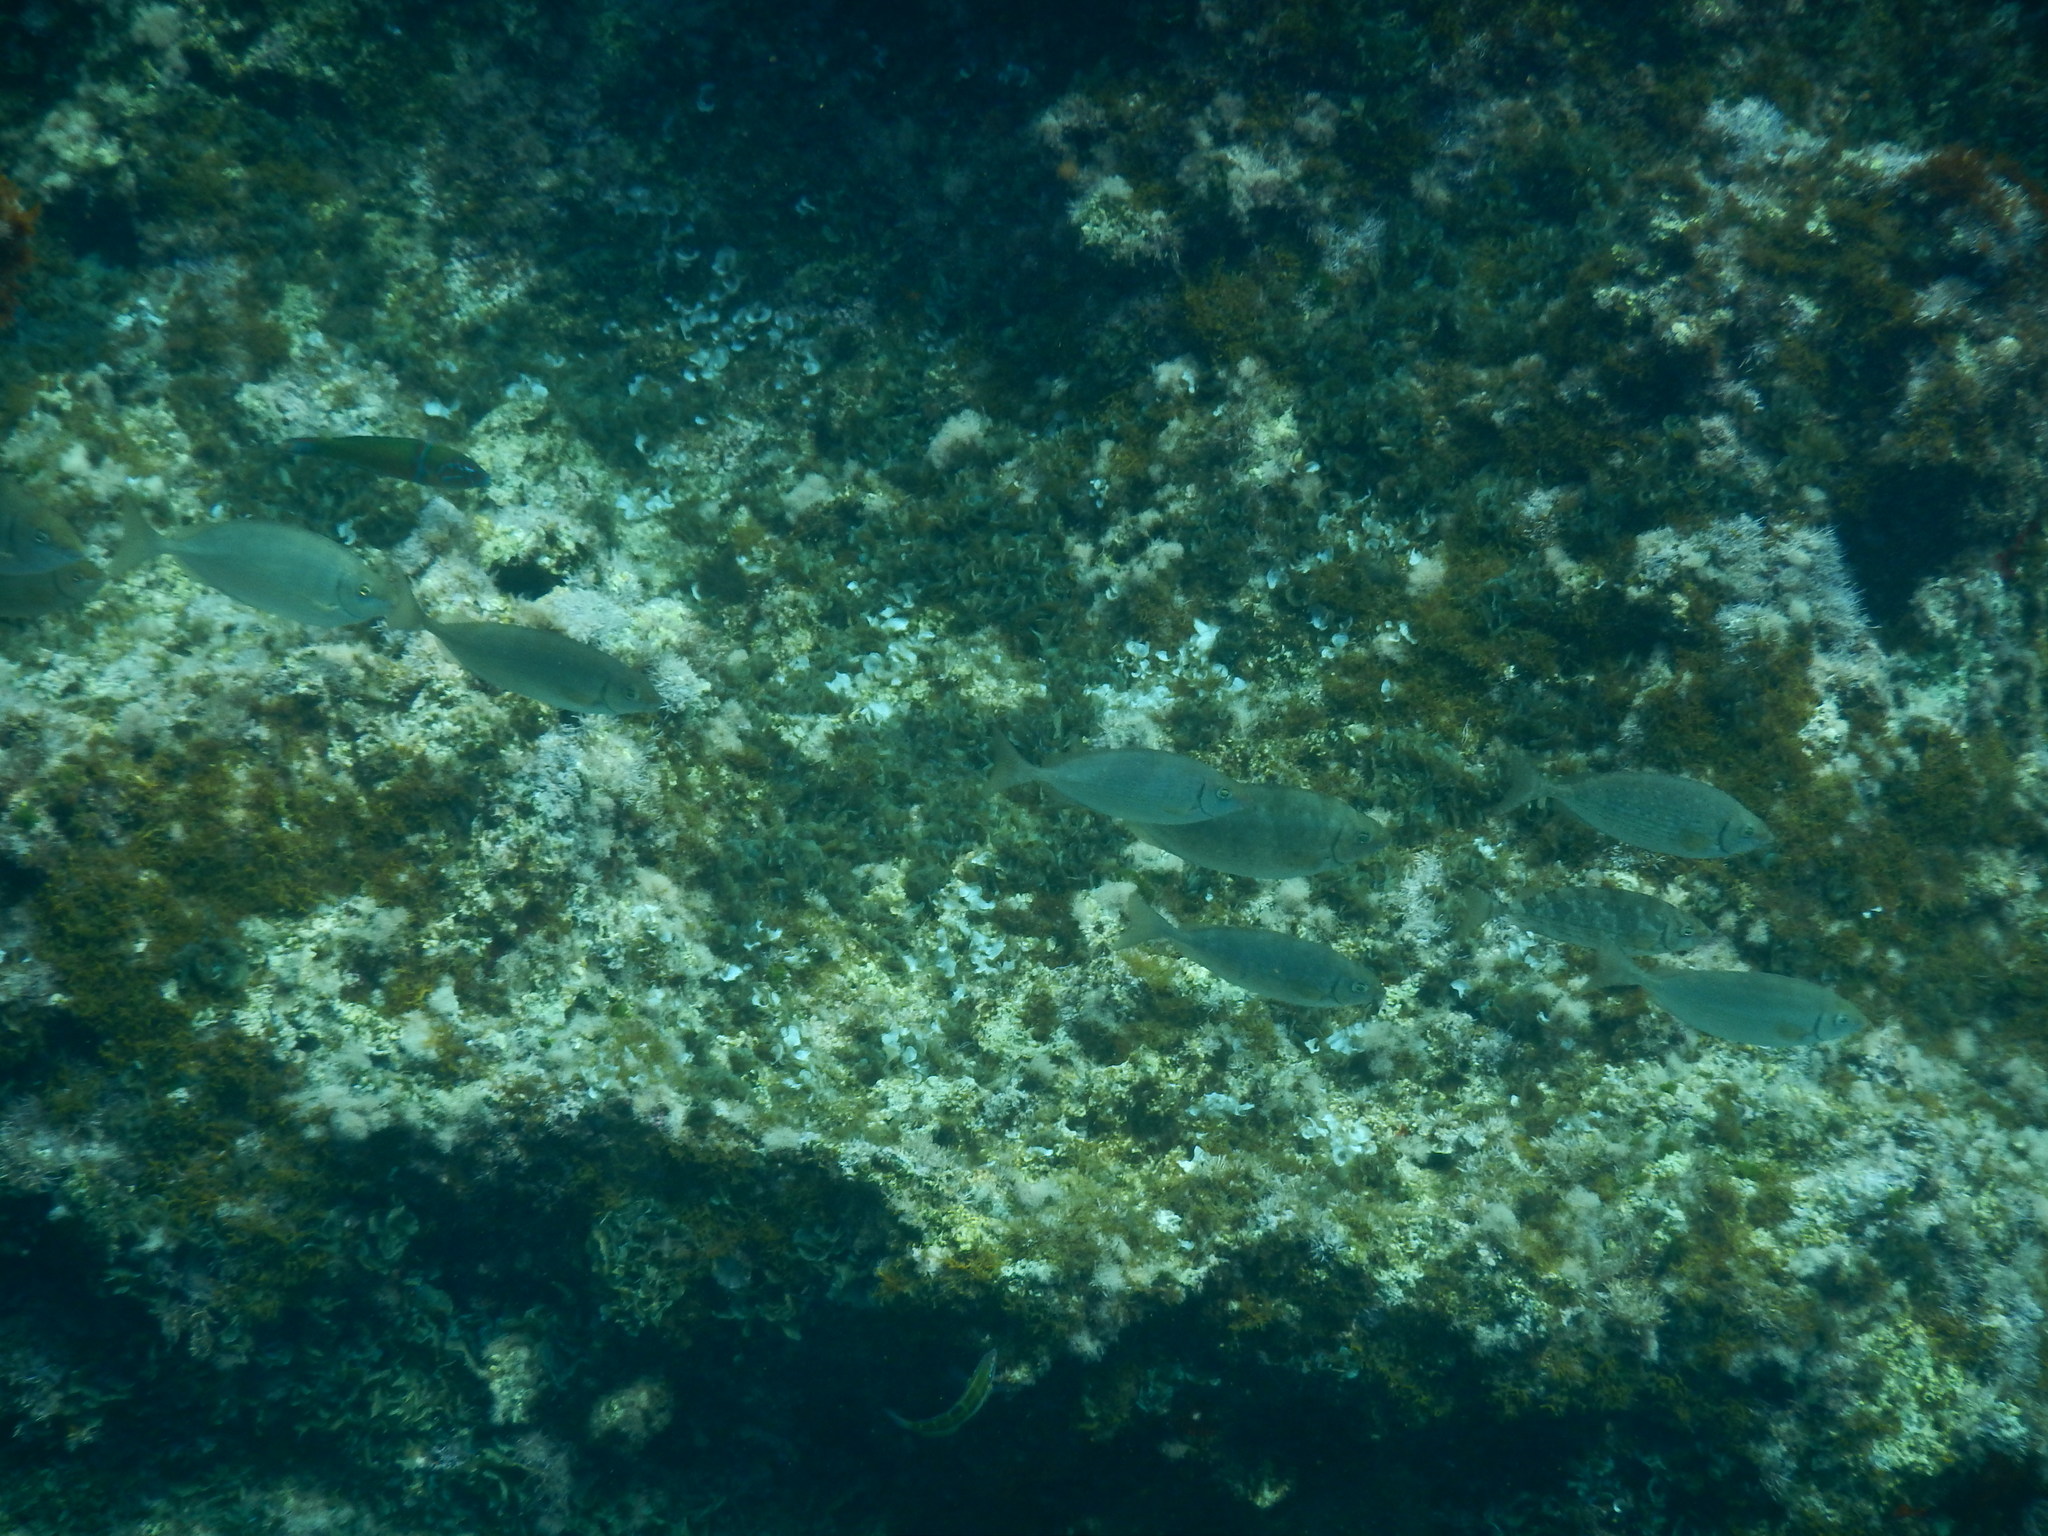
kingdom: Animalia
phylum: Chordata
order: Perciformes
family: Siganidae
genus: Siganus
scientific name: Siganus rivulatus
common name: Marbled spinefoot
